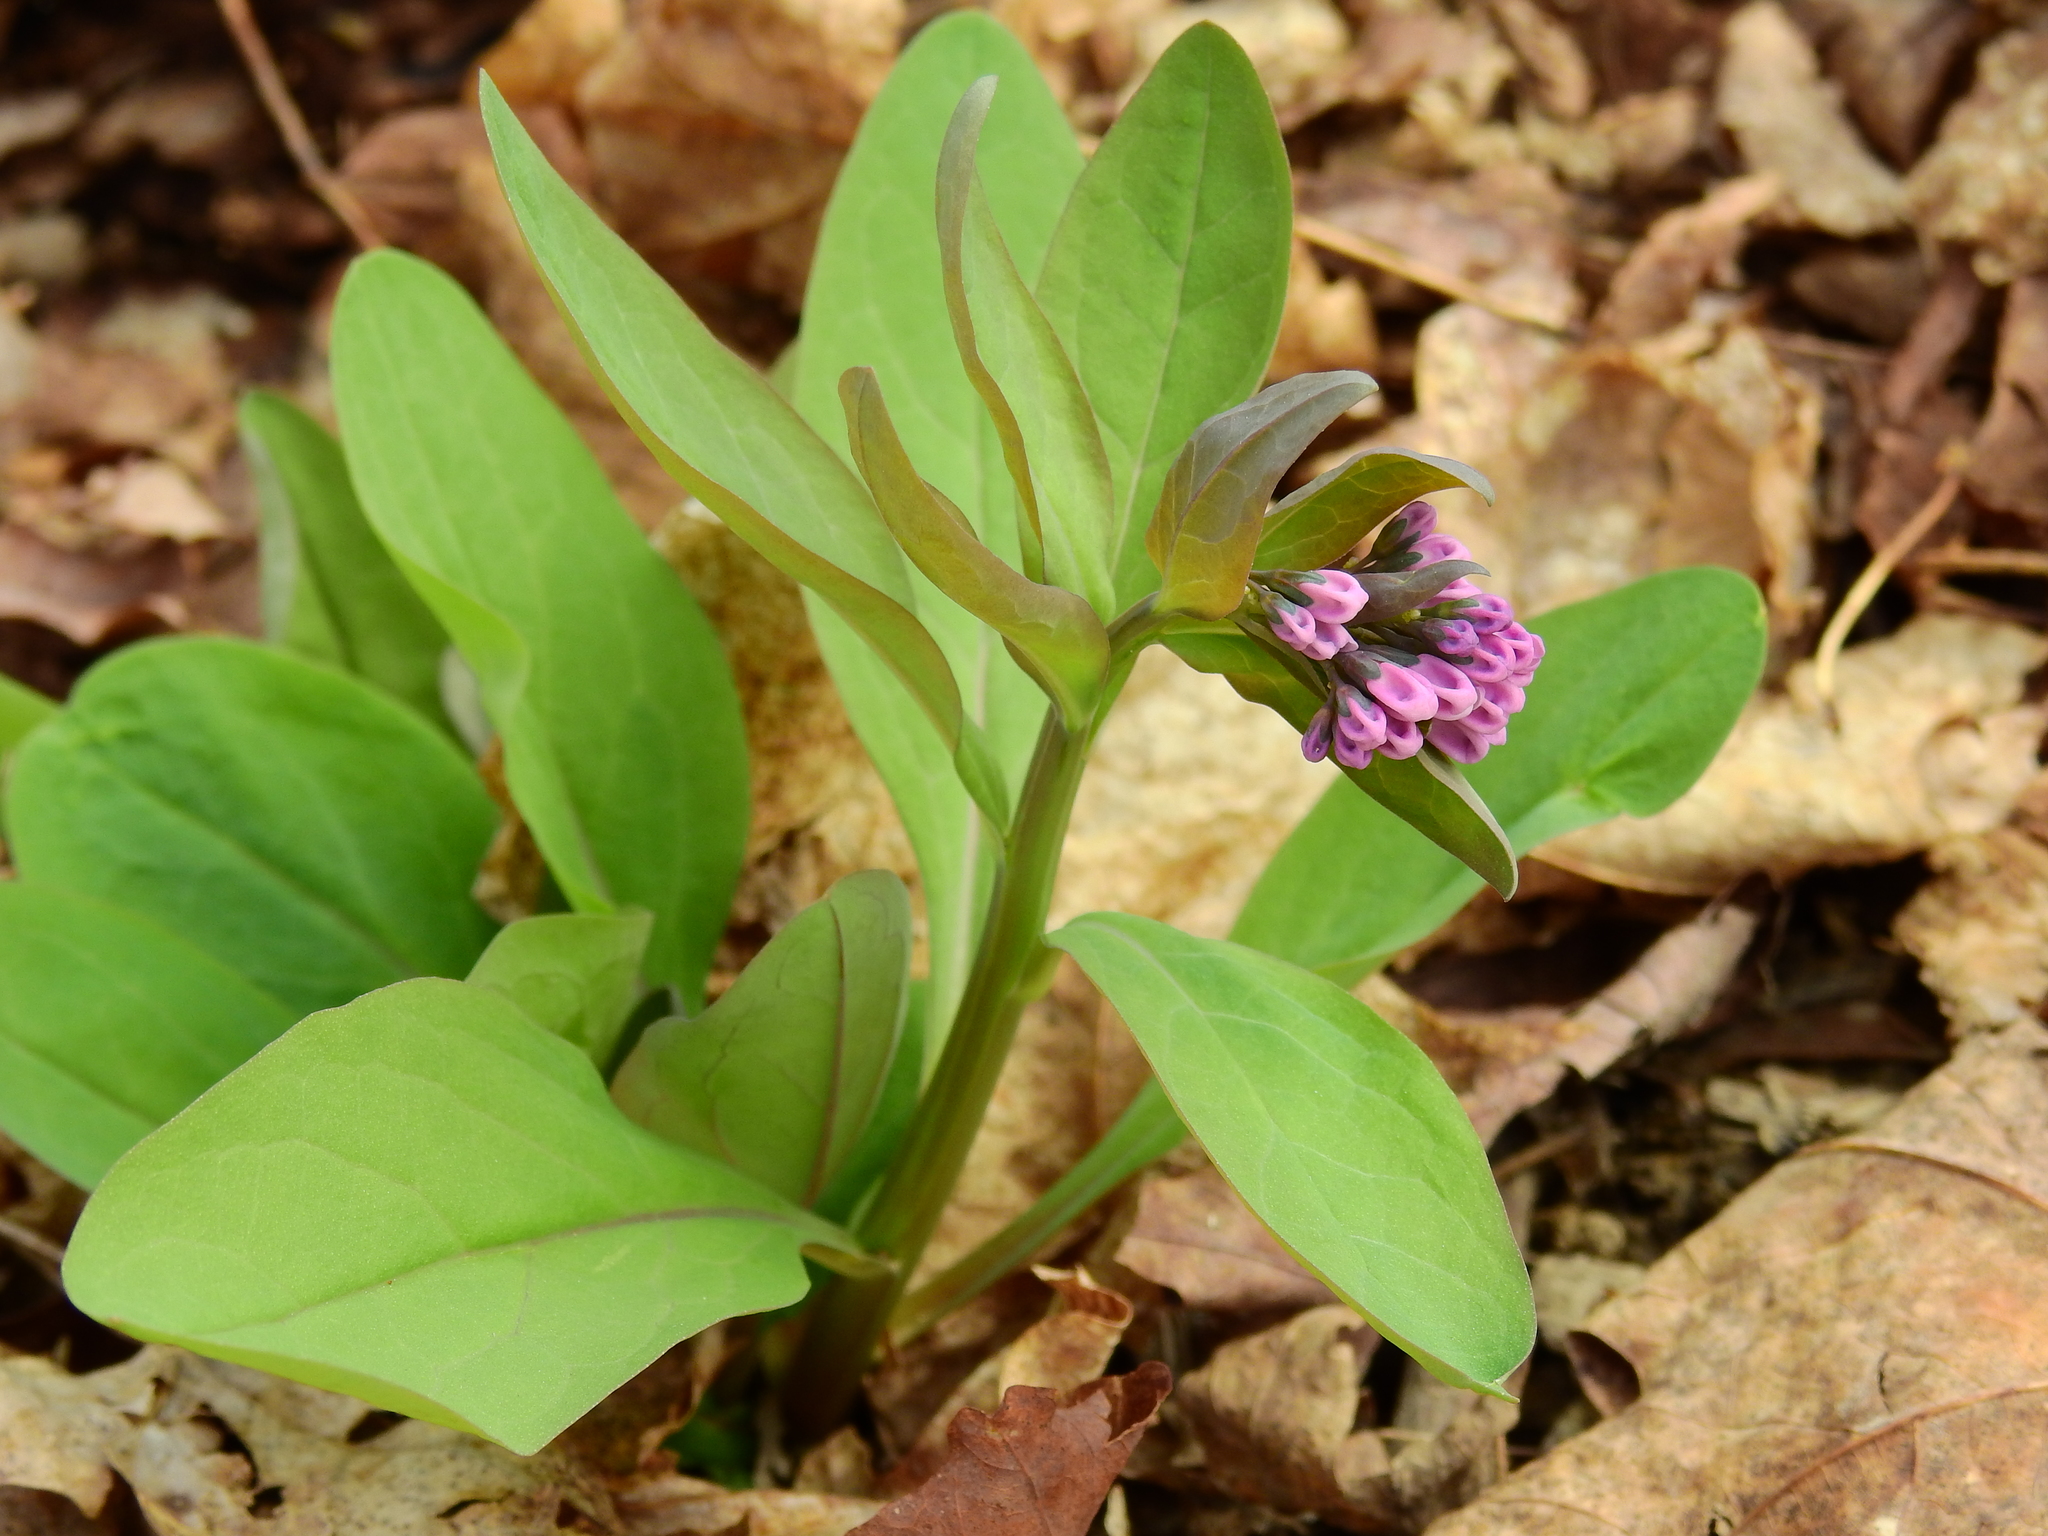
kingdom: Plantae
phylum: Tracheophyta
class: Magnoliopsida
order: Boraginales
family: Boraginaceae
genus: Mertensia
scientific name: Mertensia virginica
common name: Virginia bluebells
